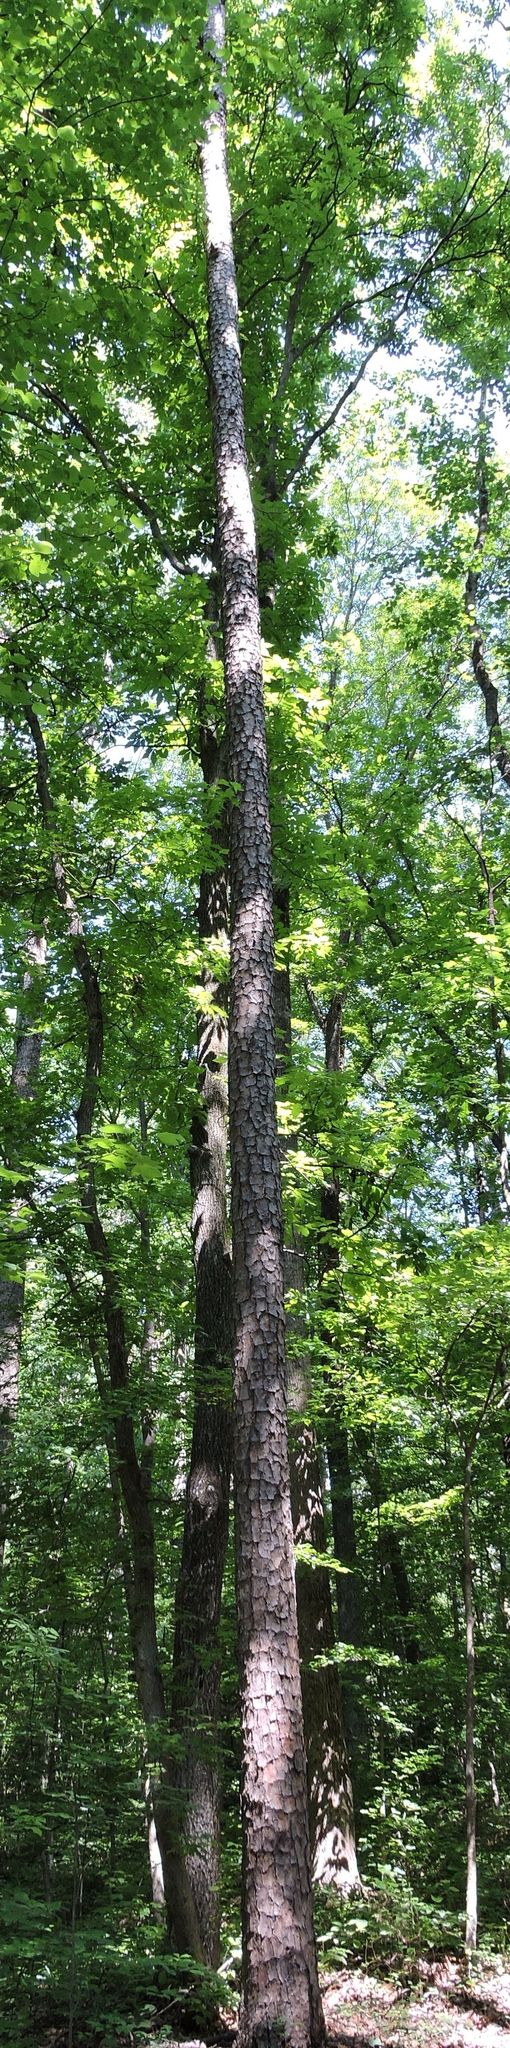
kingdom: Plantae
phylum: Tracheophyta
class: Pinopsida
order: Pinales
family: Pinaceae
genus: Pinus
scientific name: Pinus echinata
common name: Shortleaf pine
